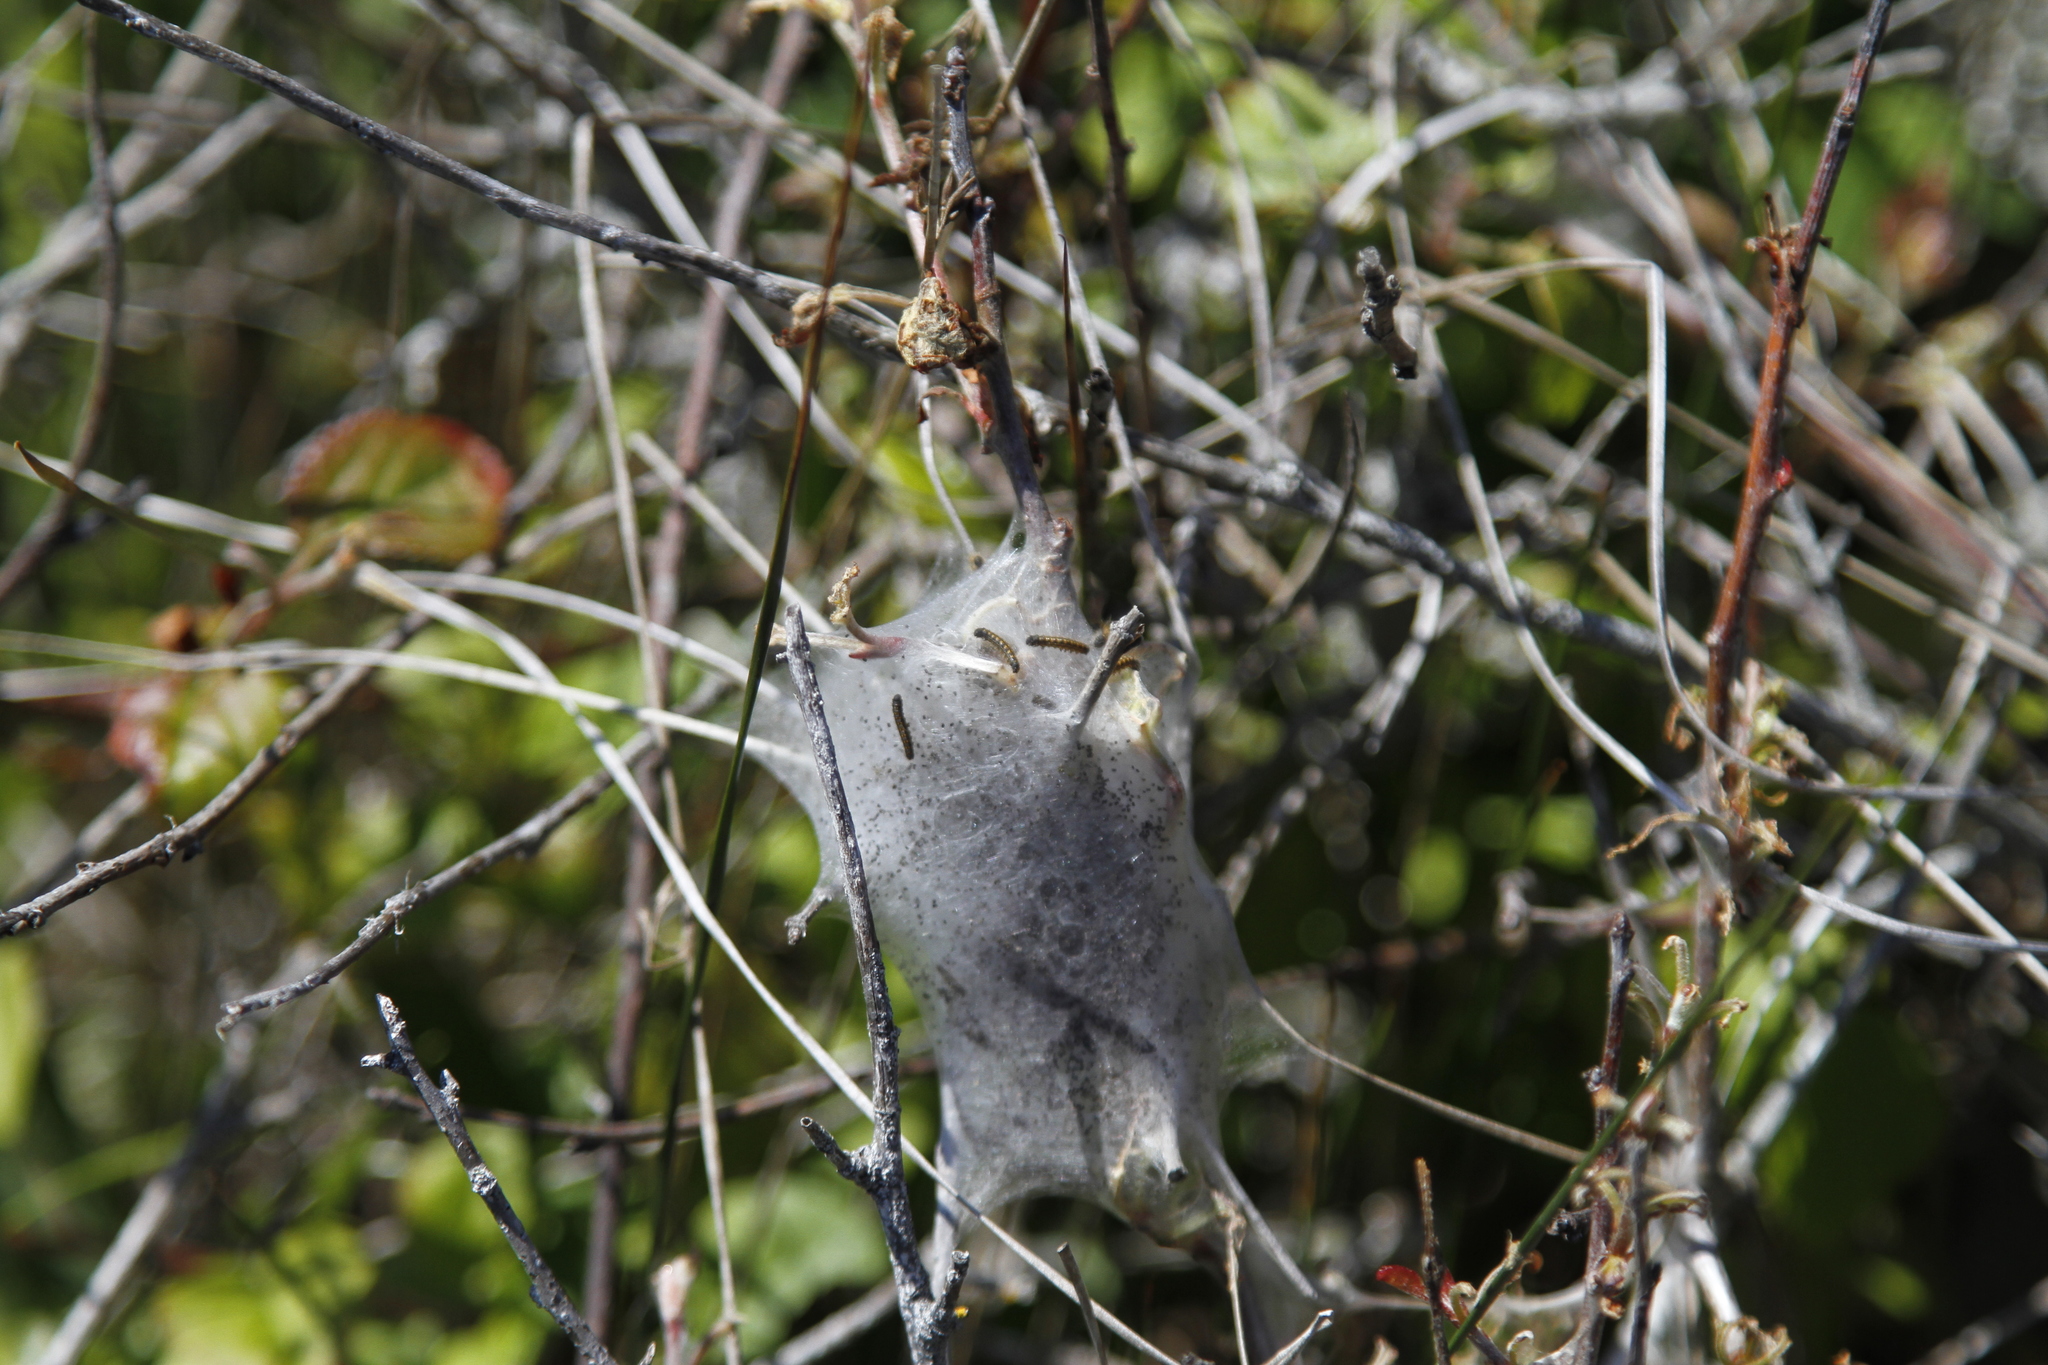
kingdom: Animalia
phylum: Arthropoda
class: Insecta
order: Lepidoptera
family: Lasiocampidae
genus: Malacosoma
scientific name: Malacosoma californica
